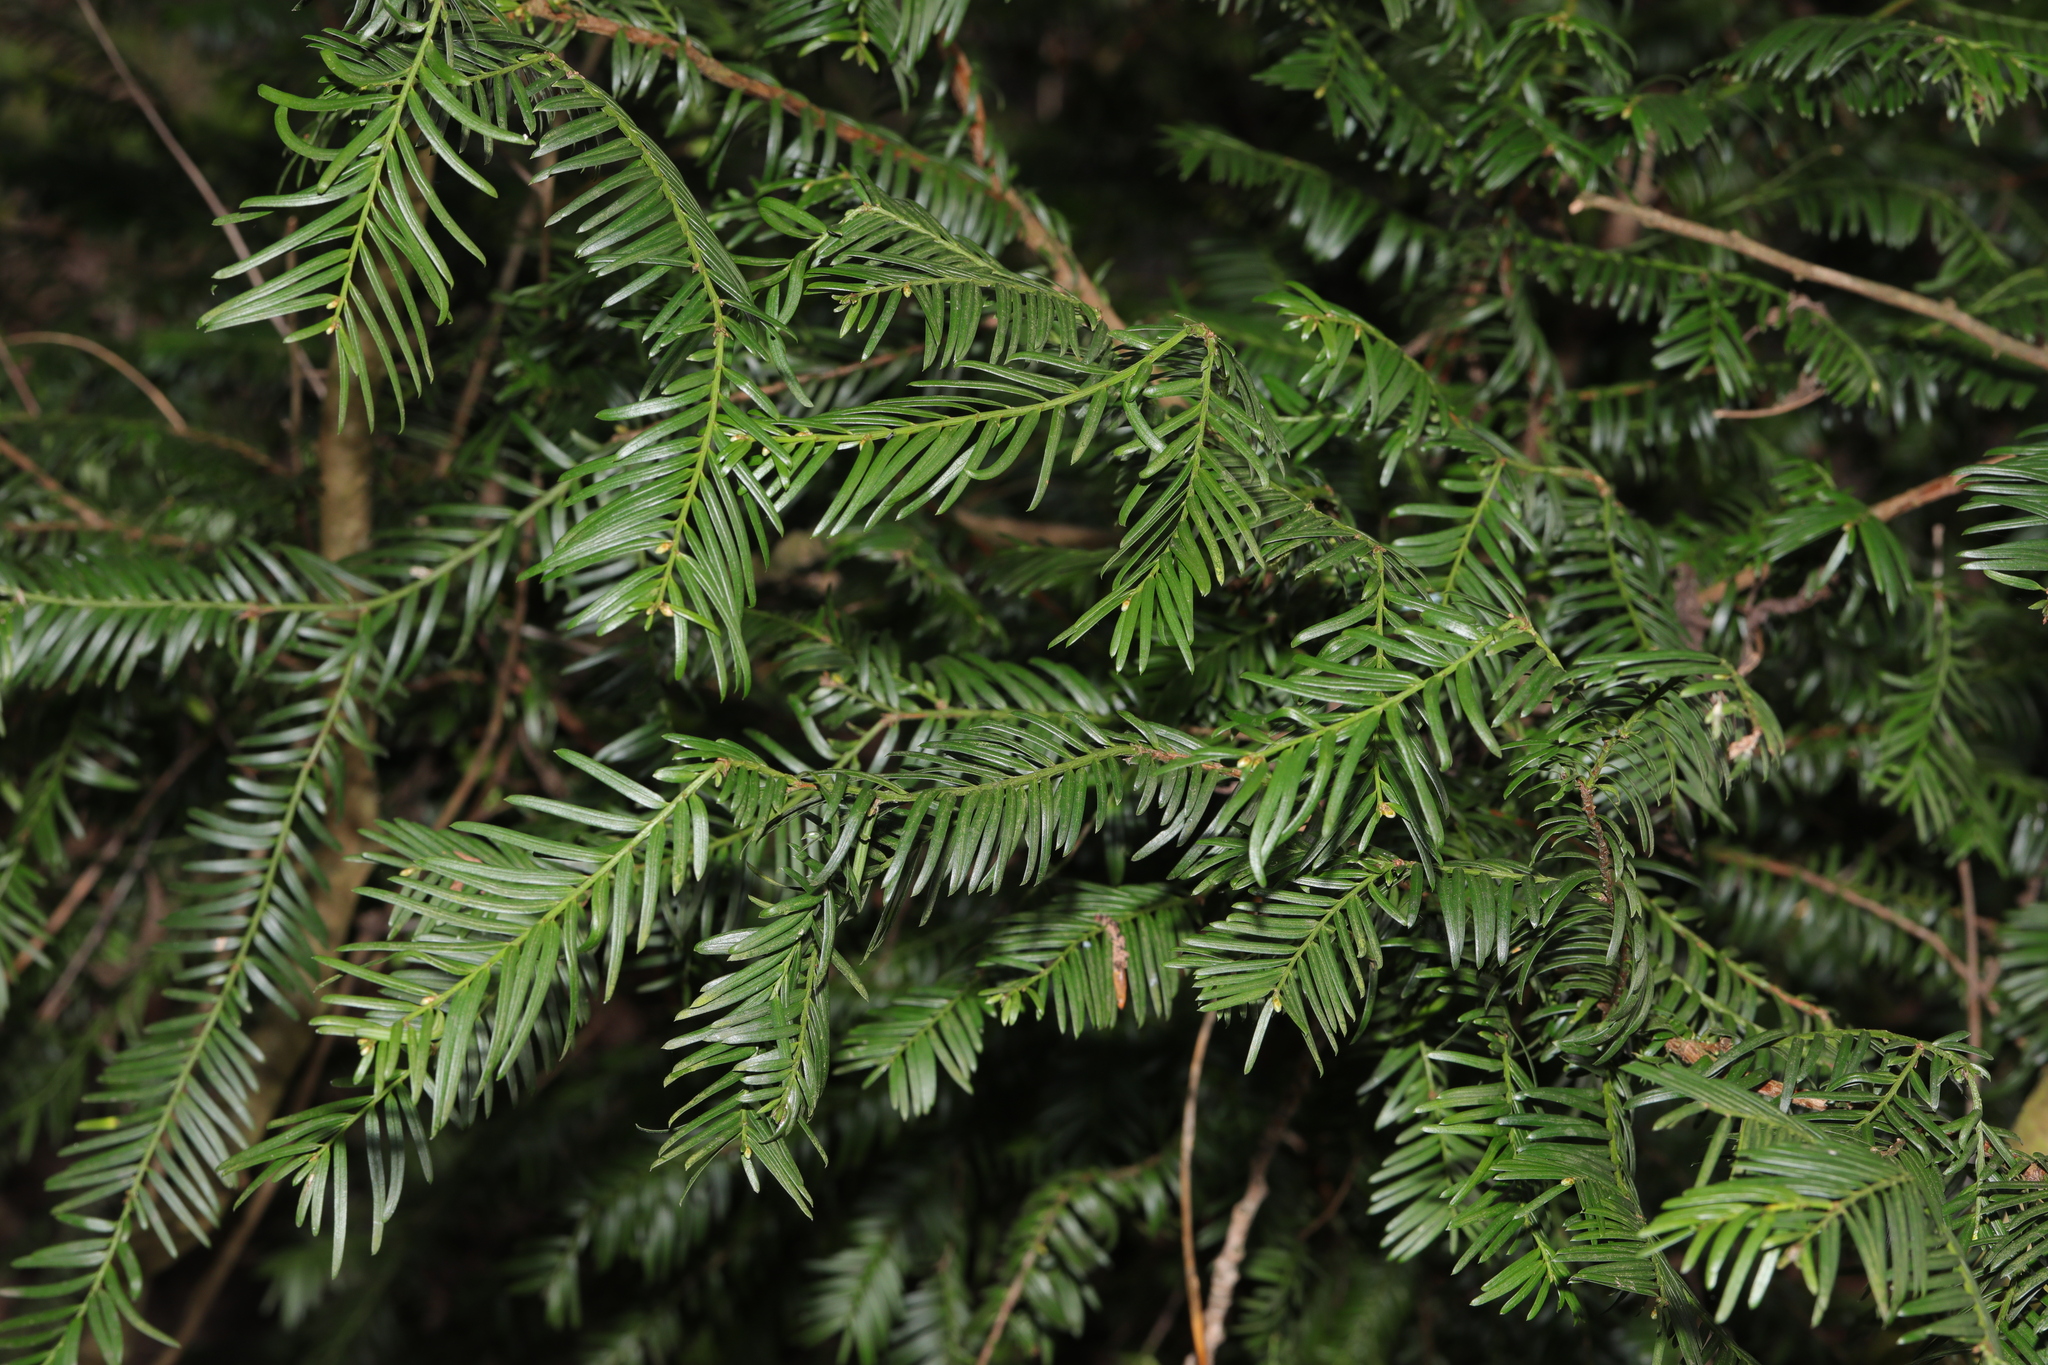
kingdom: Plantae
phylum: Tracheophyta
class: Pinopsida
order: Pinales
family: Taxaceae
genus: Taxus
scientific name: Taxus baccata
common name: Yew
